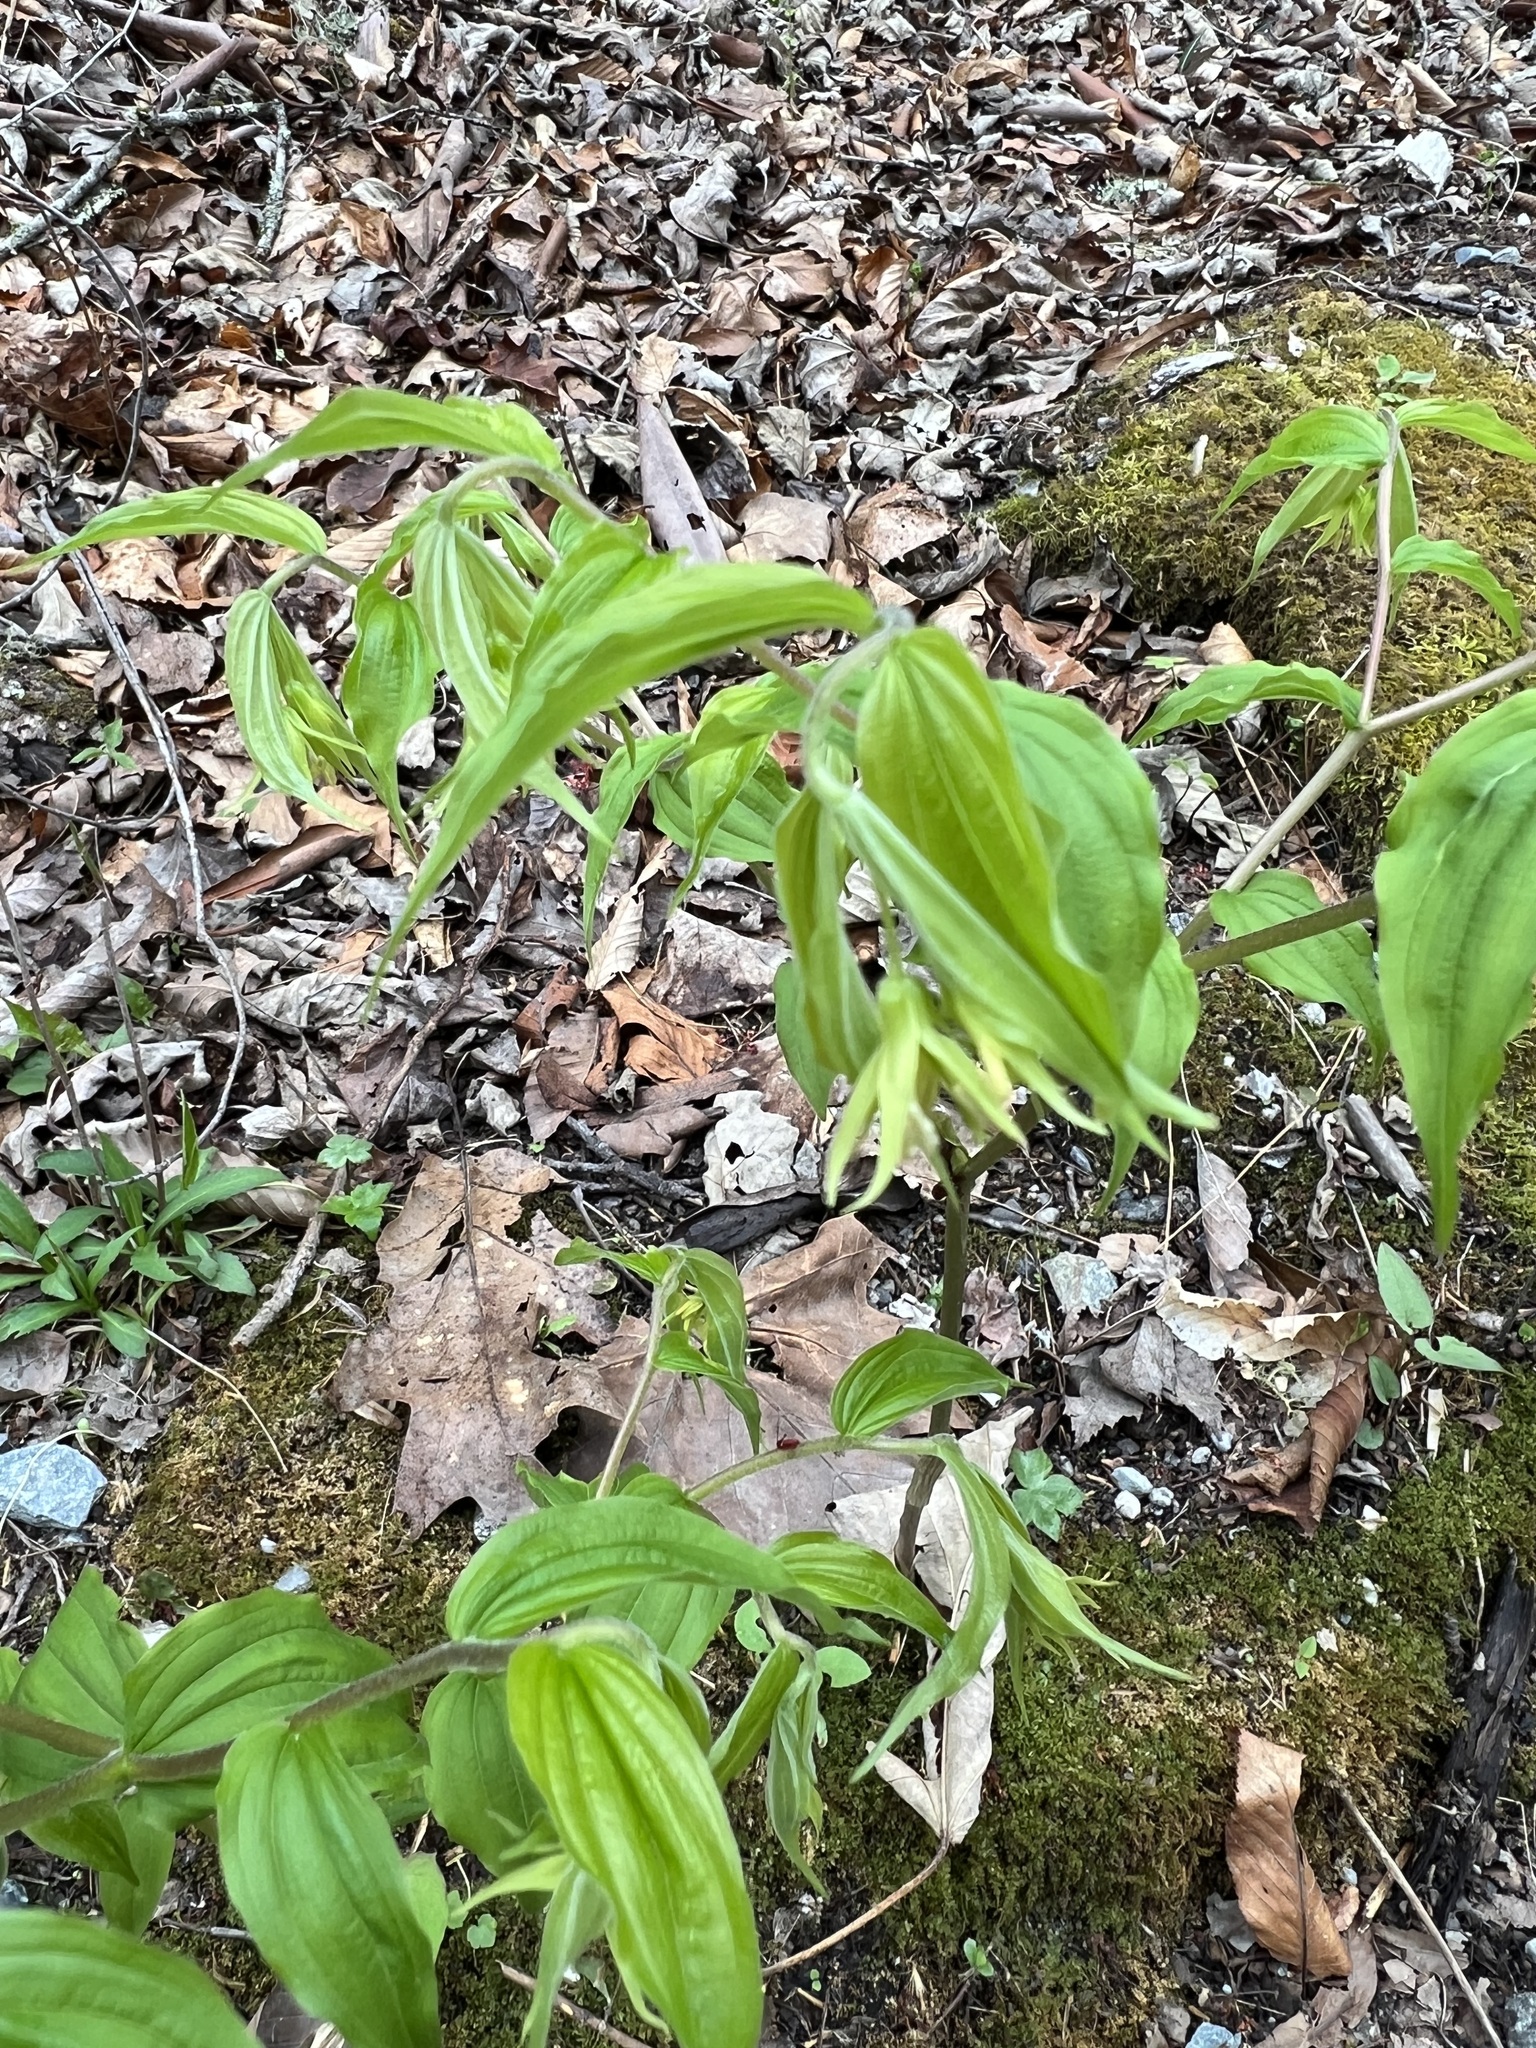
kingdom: Plantae
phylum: Tracheophyta
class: Liliopsida
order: Liliales
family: Liliaceae
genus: Prosartes
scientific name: Prosartes lanuginosa
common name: Hairy mandarin
